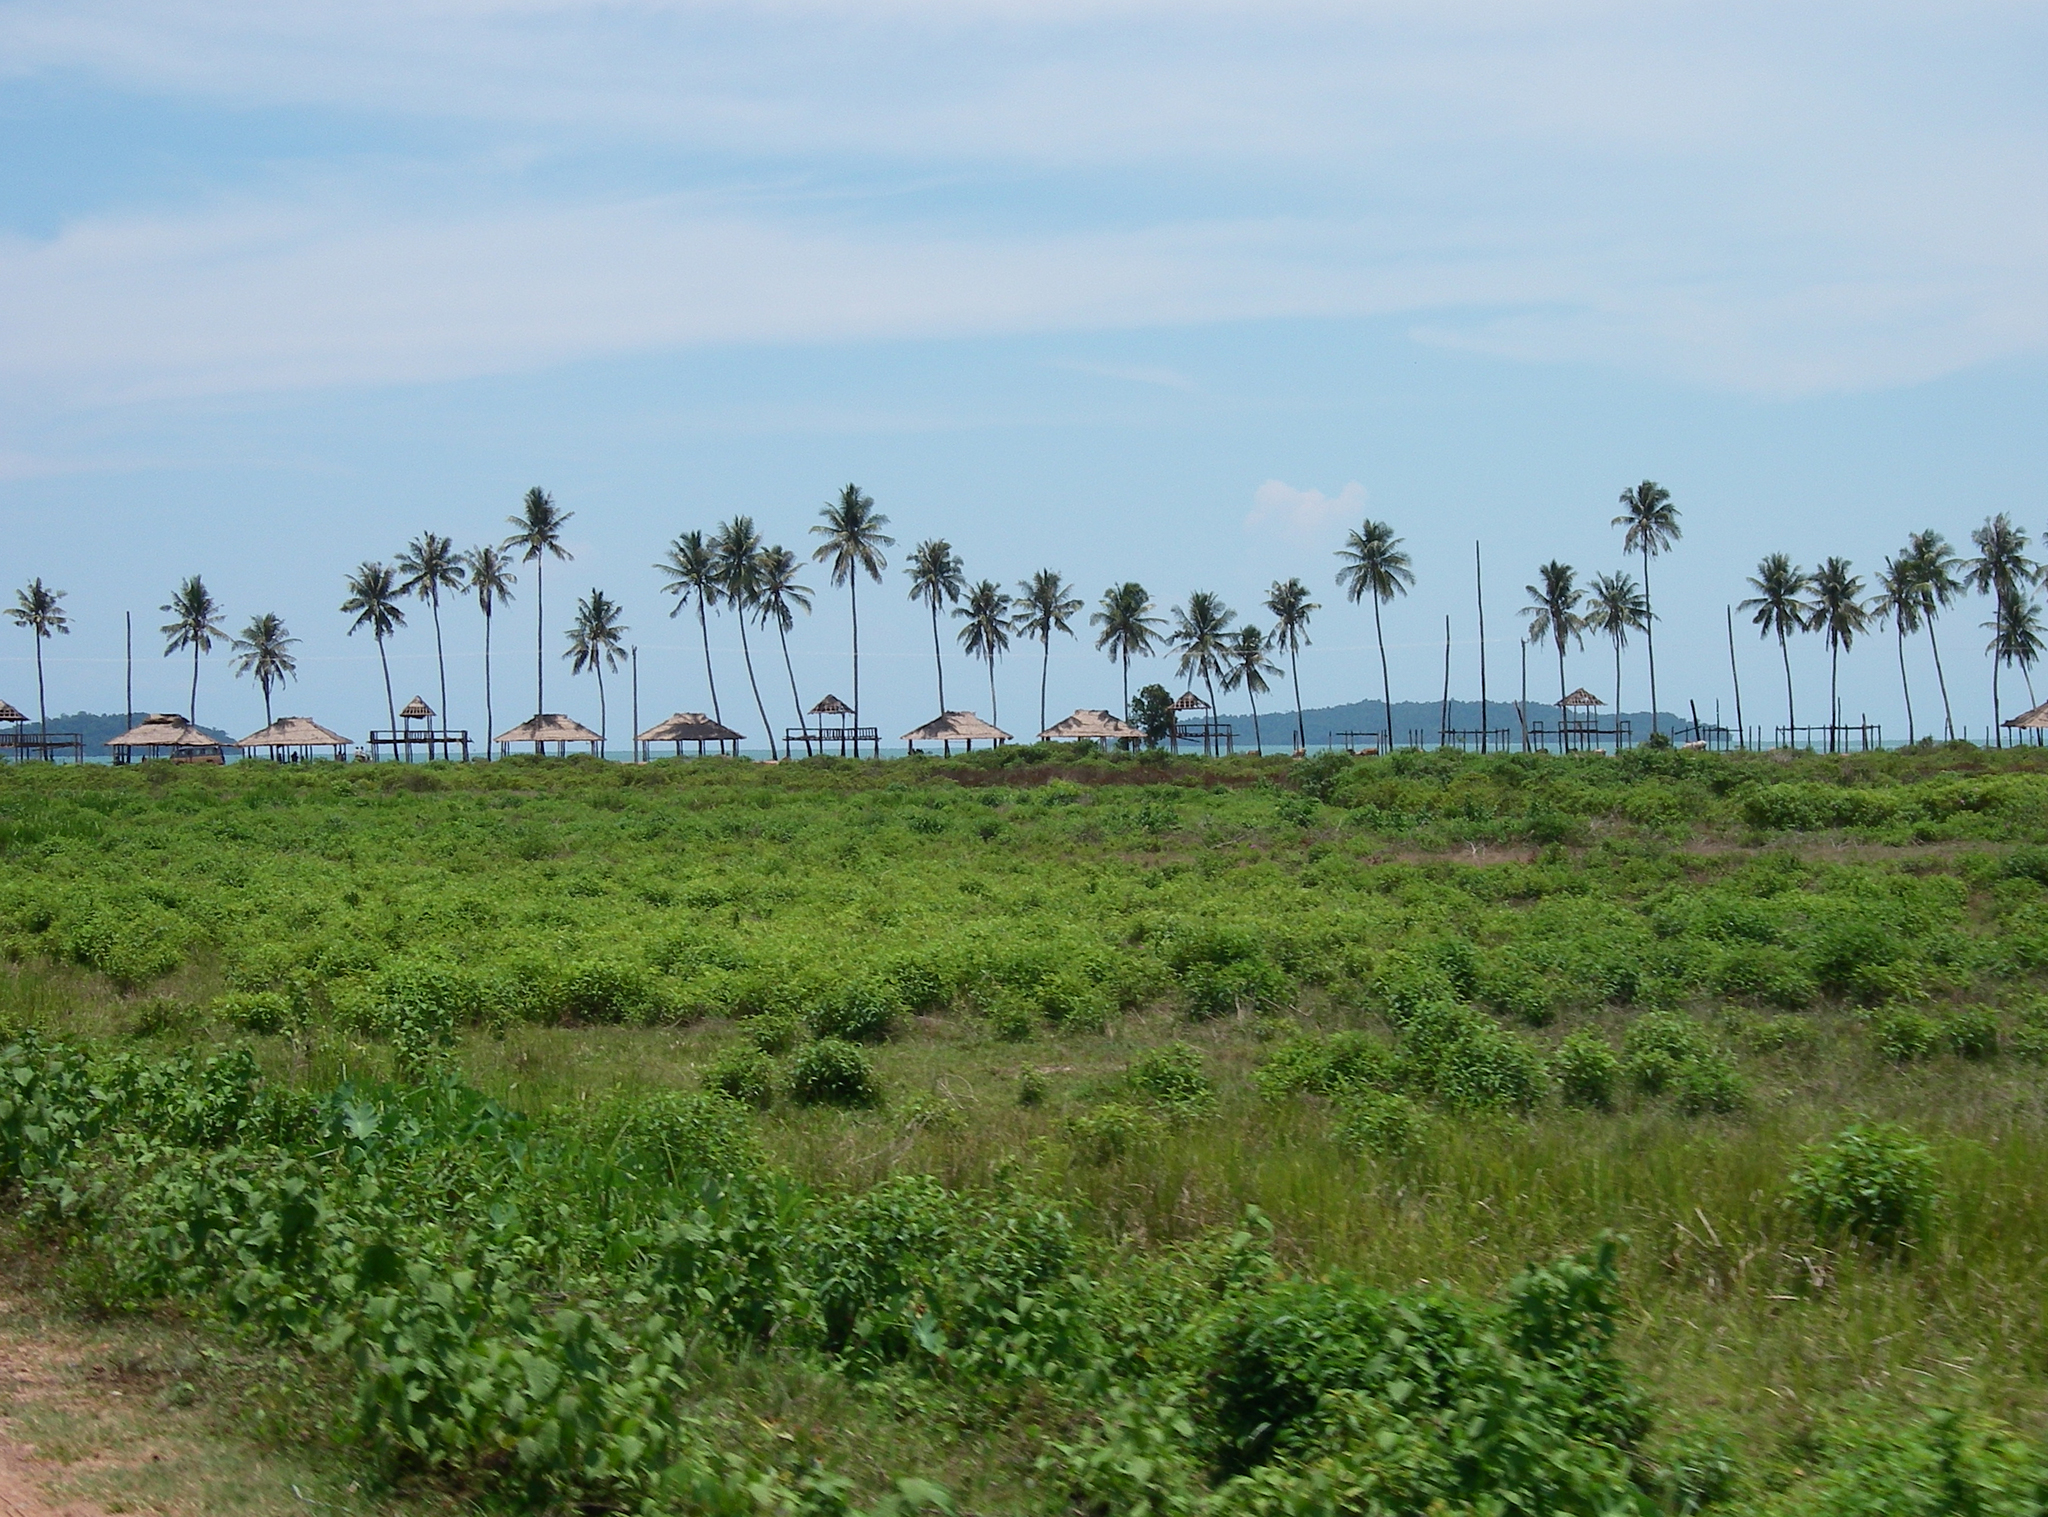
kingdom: Plantae
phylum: Tracheophyta
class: Liliopsida
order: Arecales
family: Arecaceae
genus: Cocos
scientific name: Cocos nucifera
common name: Coconut palm
